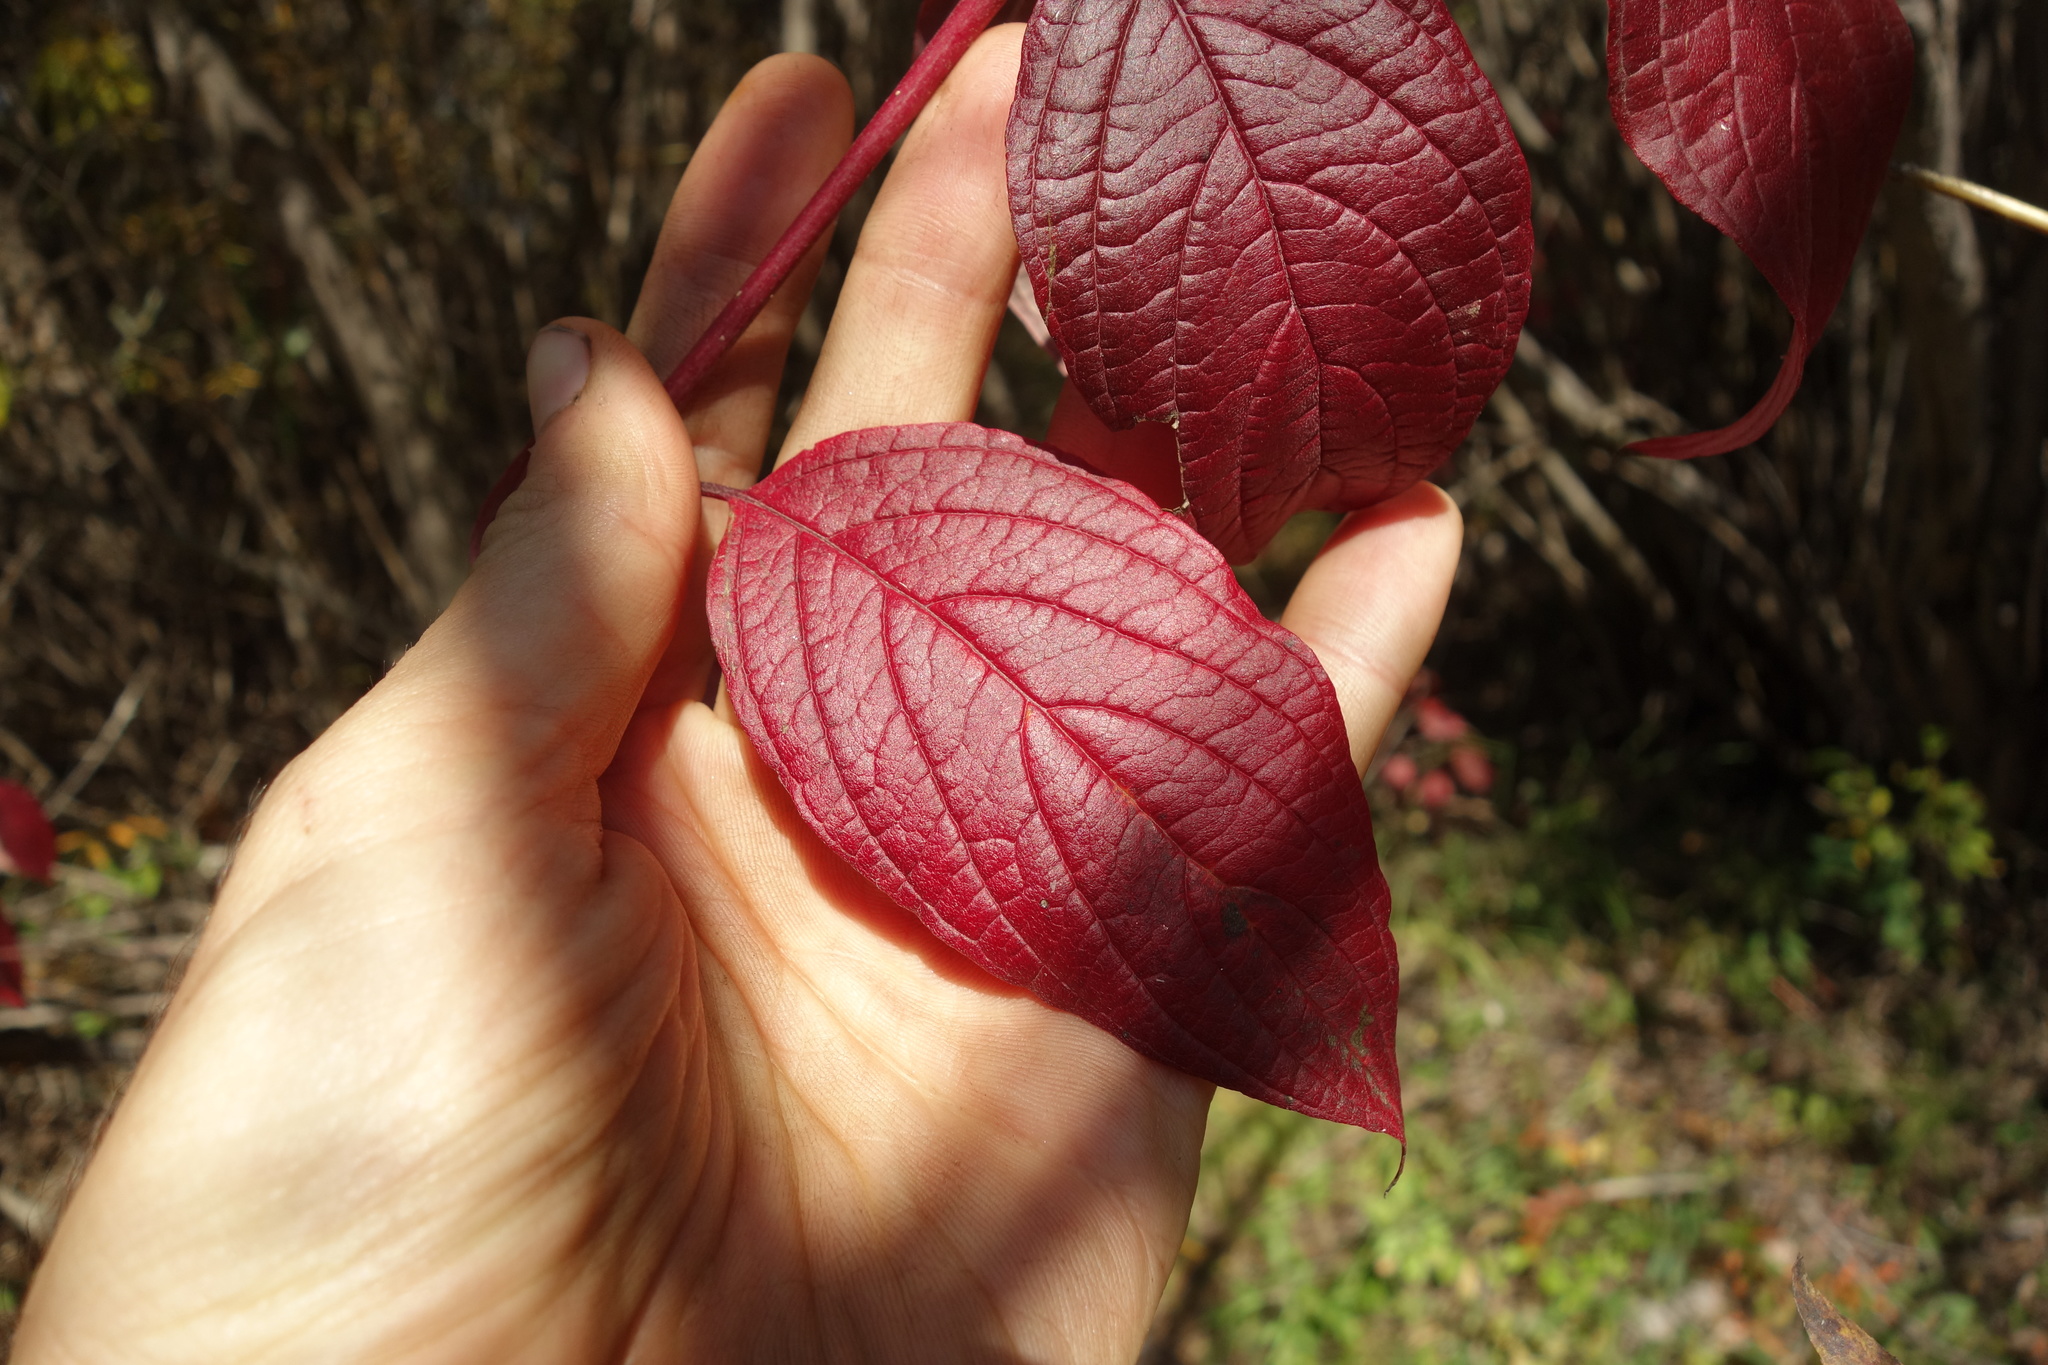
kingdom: Plantae
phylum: Tracheophyta
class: Magnoliopsida
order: Cornales
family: Cornaceae
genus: Cornus
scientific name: Cornus alba
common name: White dogwood
